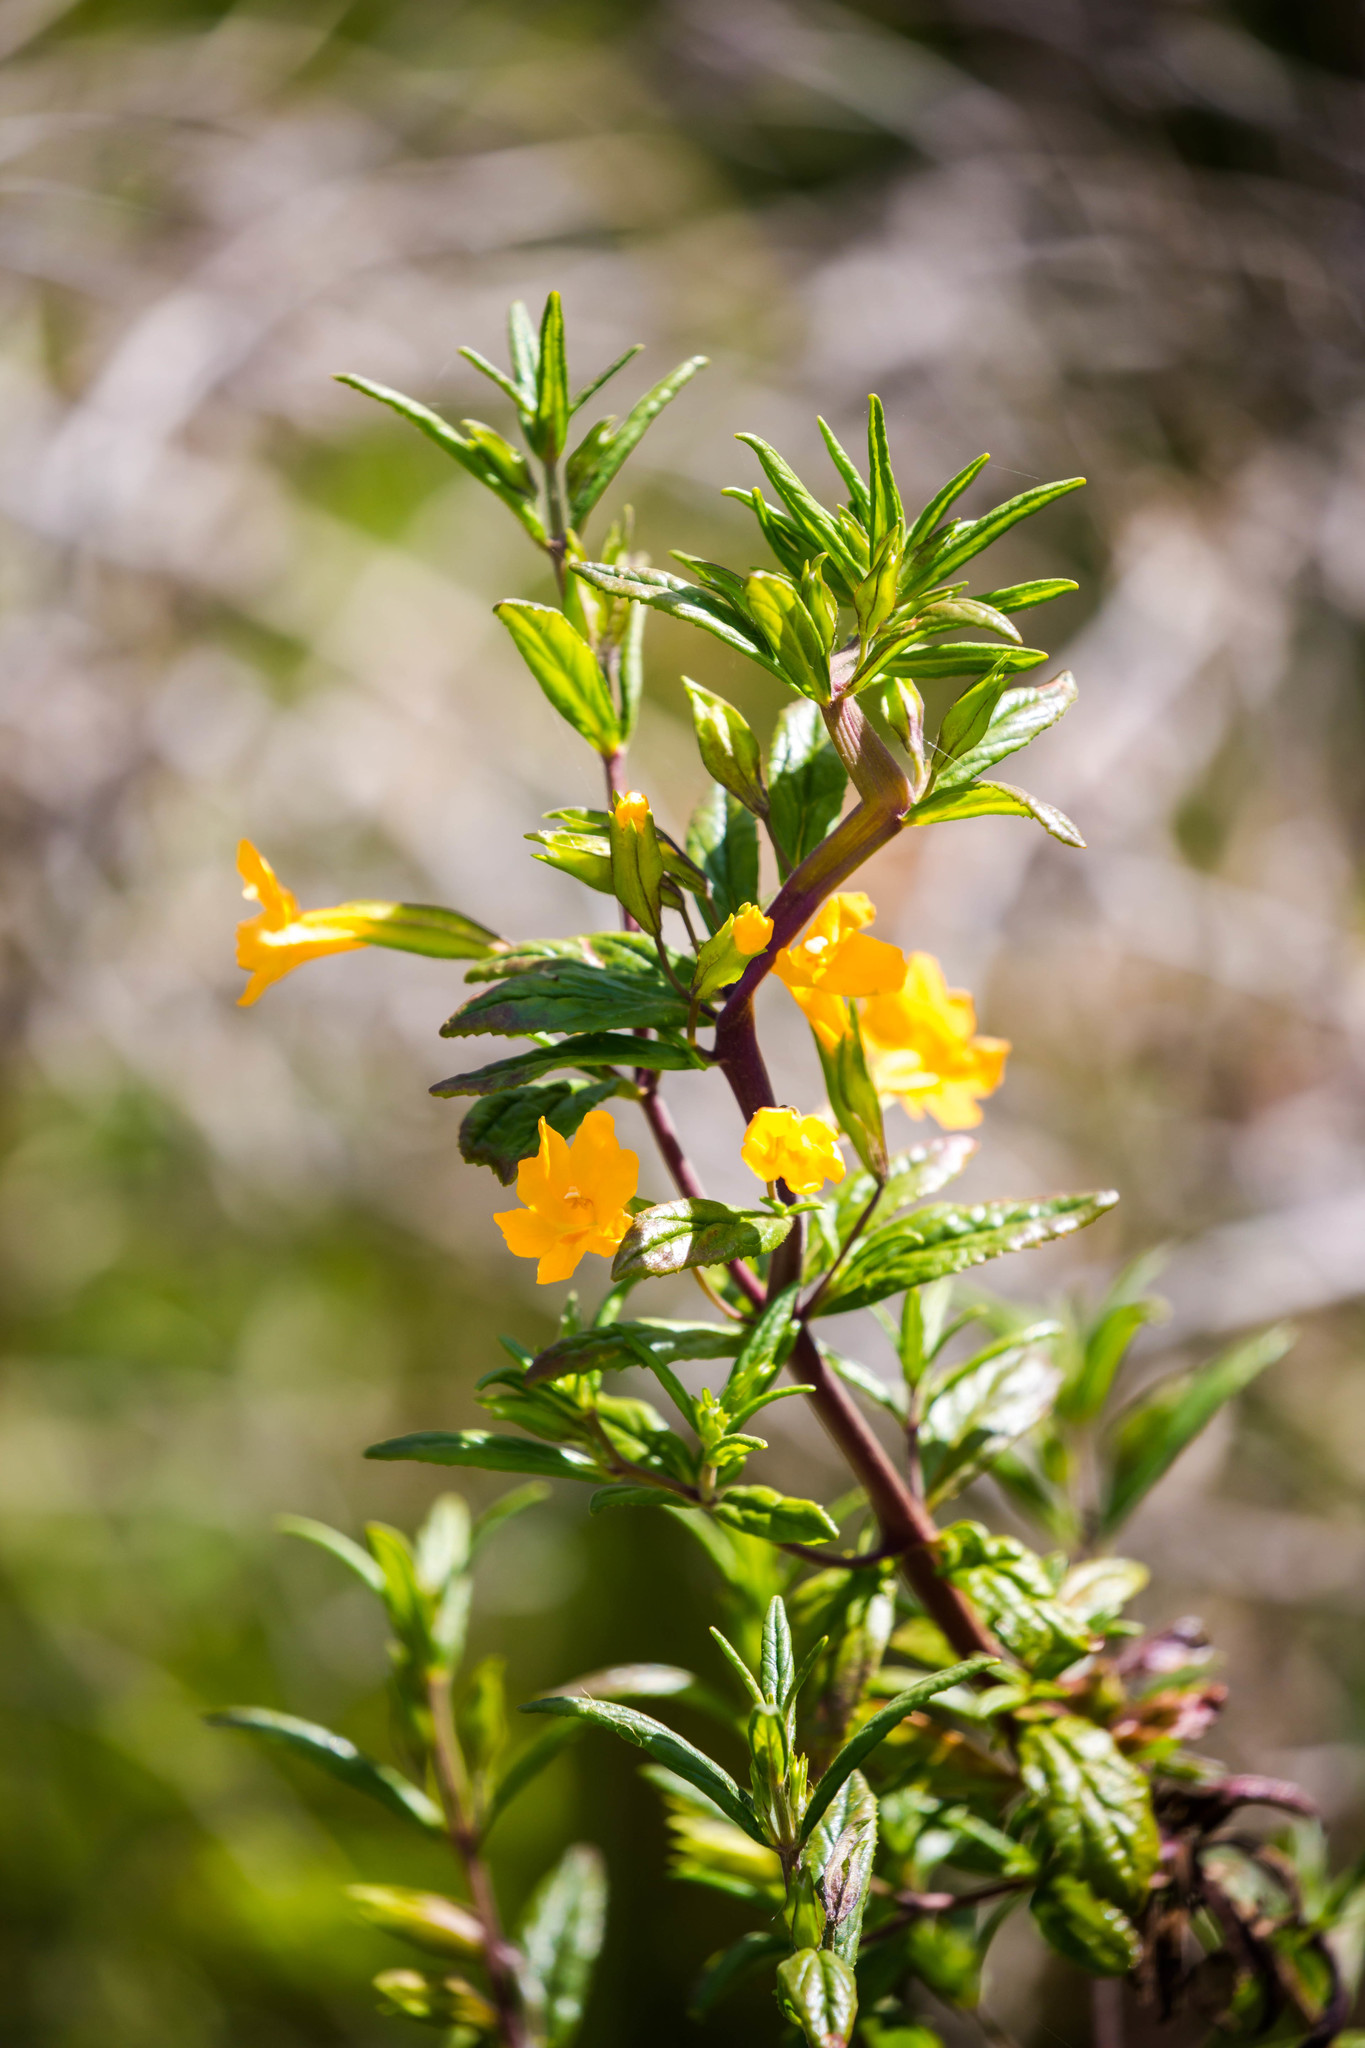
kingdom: Plantae
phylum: Tracheophyta
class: Magnoliopsida
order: Lamiales
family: Phrymaceae
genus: Diplacus
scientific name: Diplacus aurantiacus
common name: Bush monkey-flower
